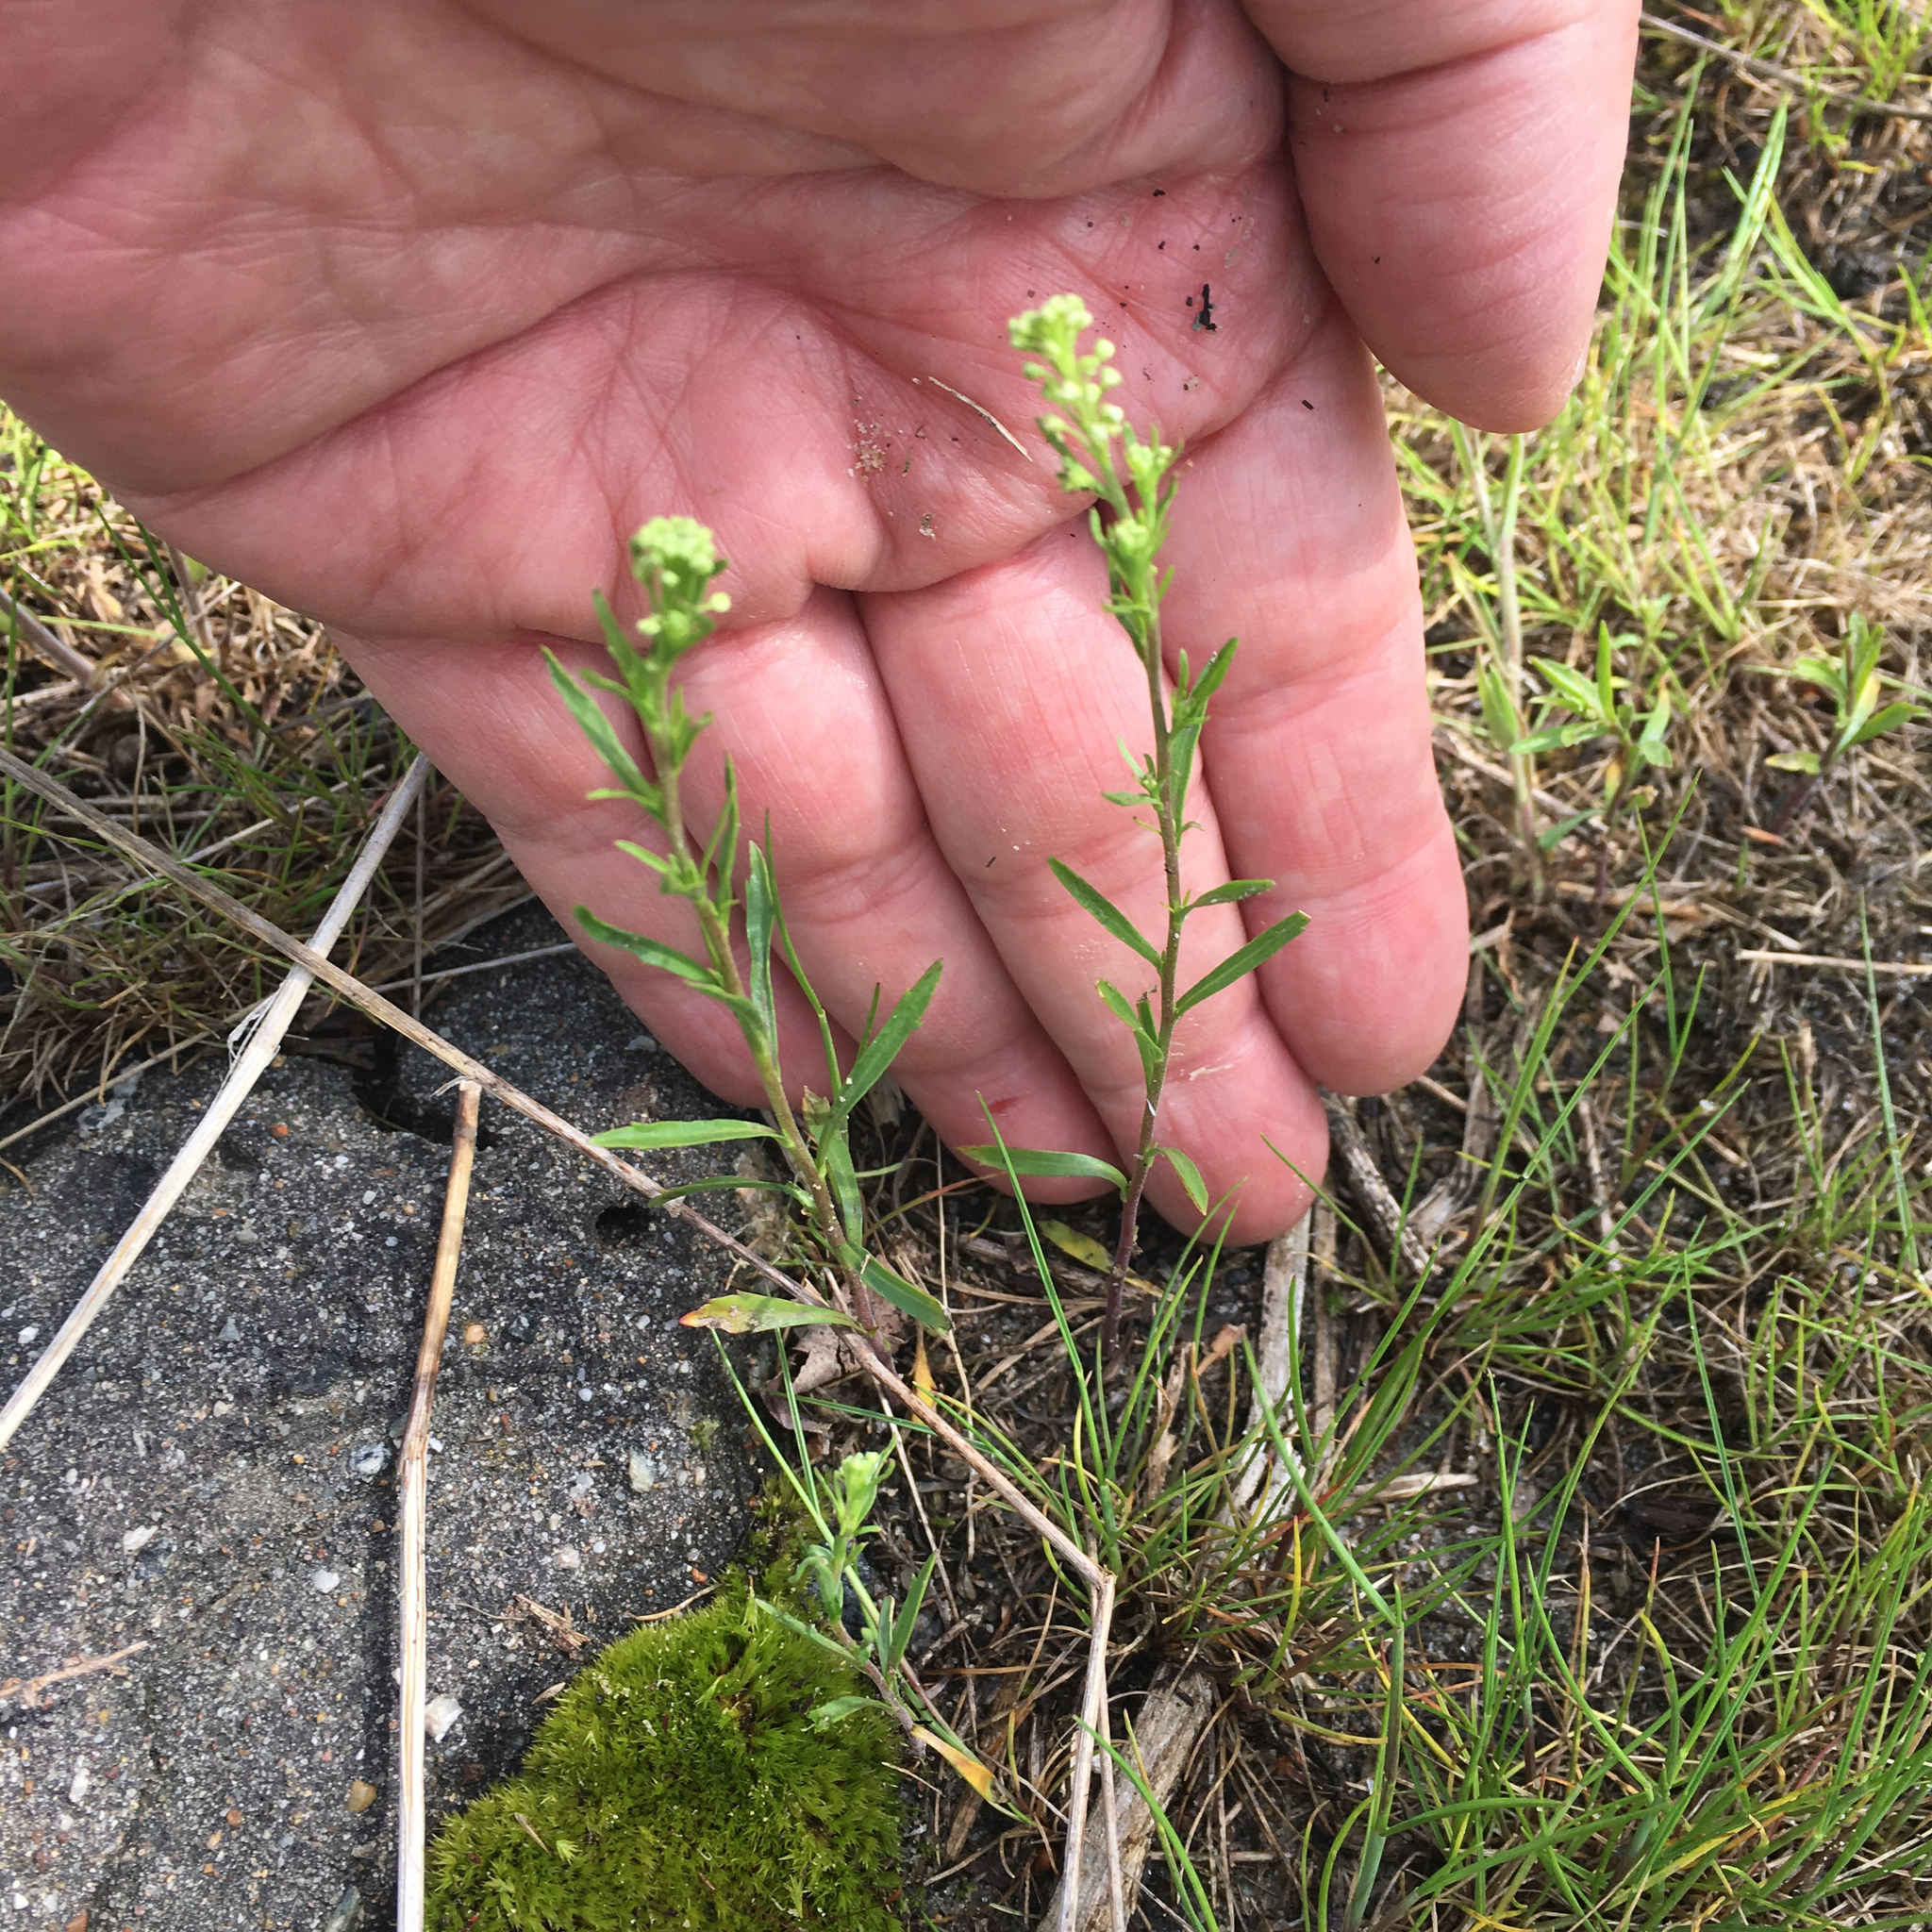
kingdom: Plantae
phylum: Tracheophyta
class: Magnoliopsida
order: Brassicales
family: Brassicaceae
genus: Lepidium
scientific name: Lepidium virginicum
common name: Least pepperwort
